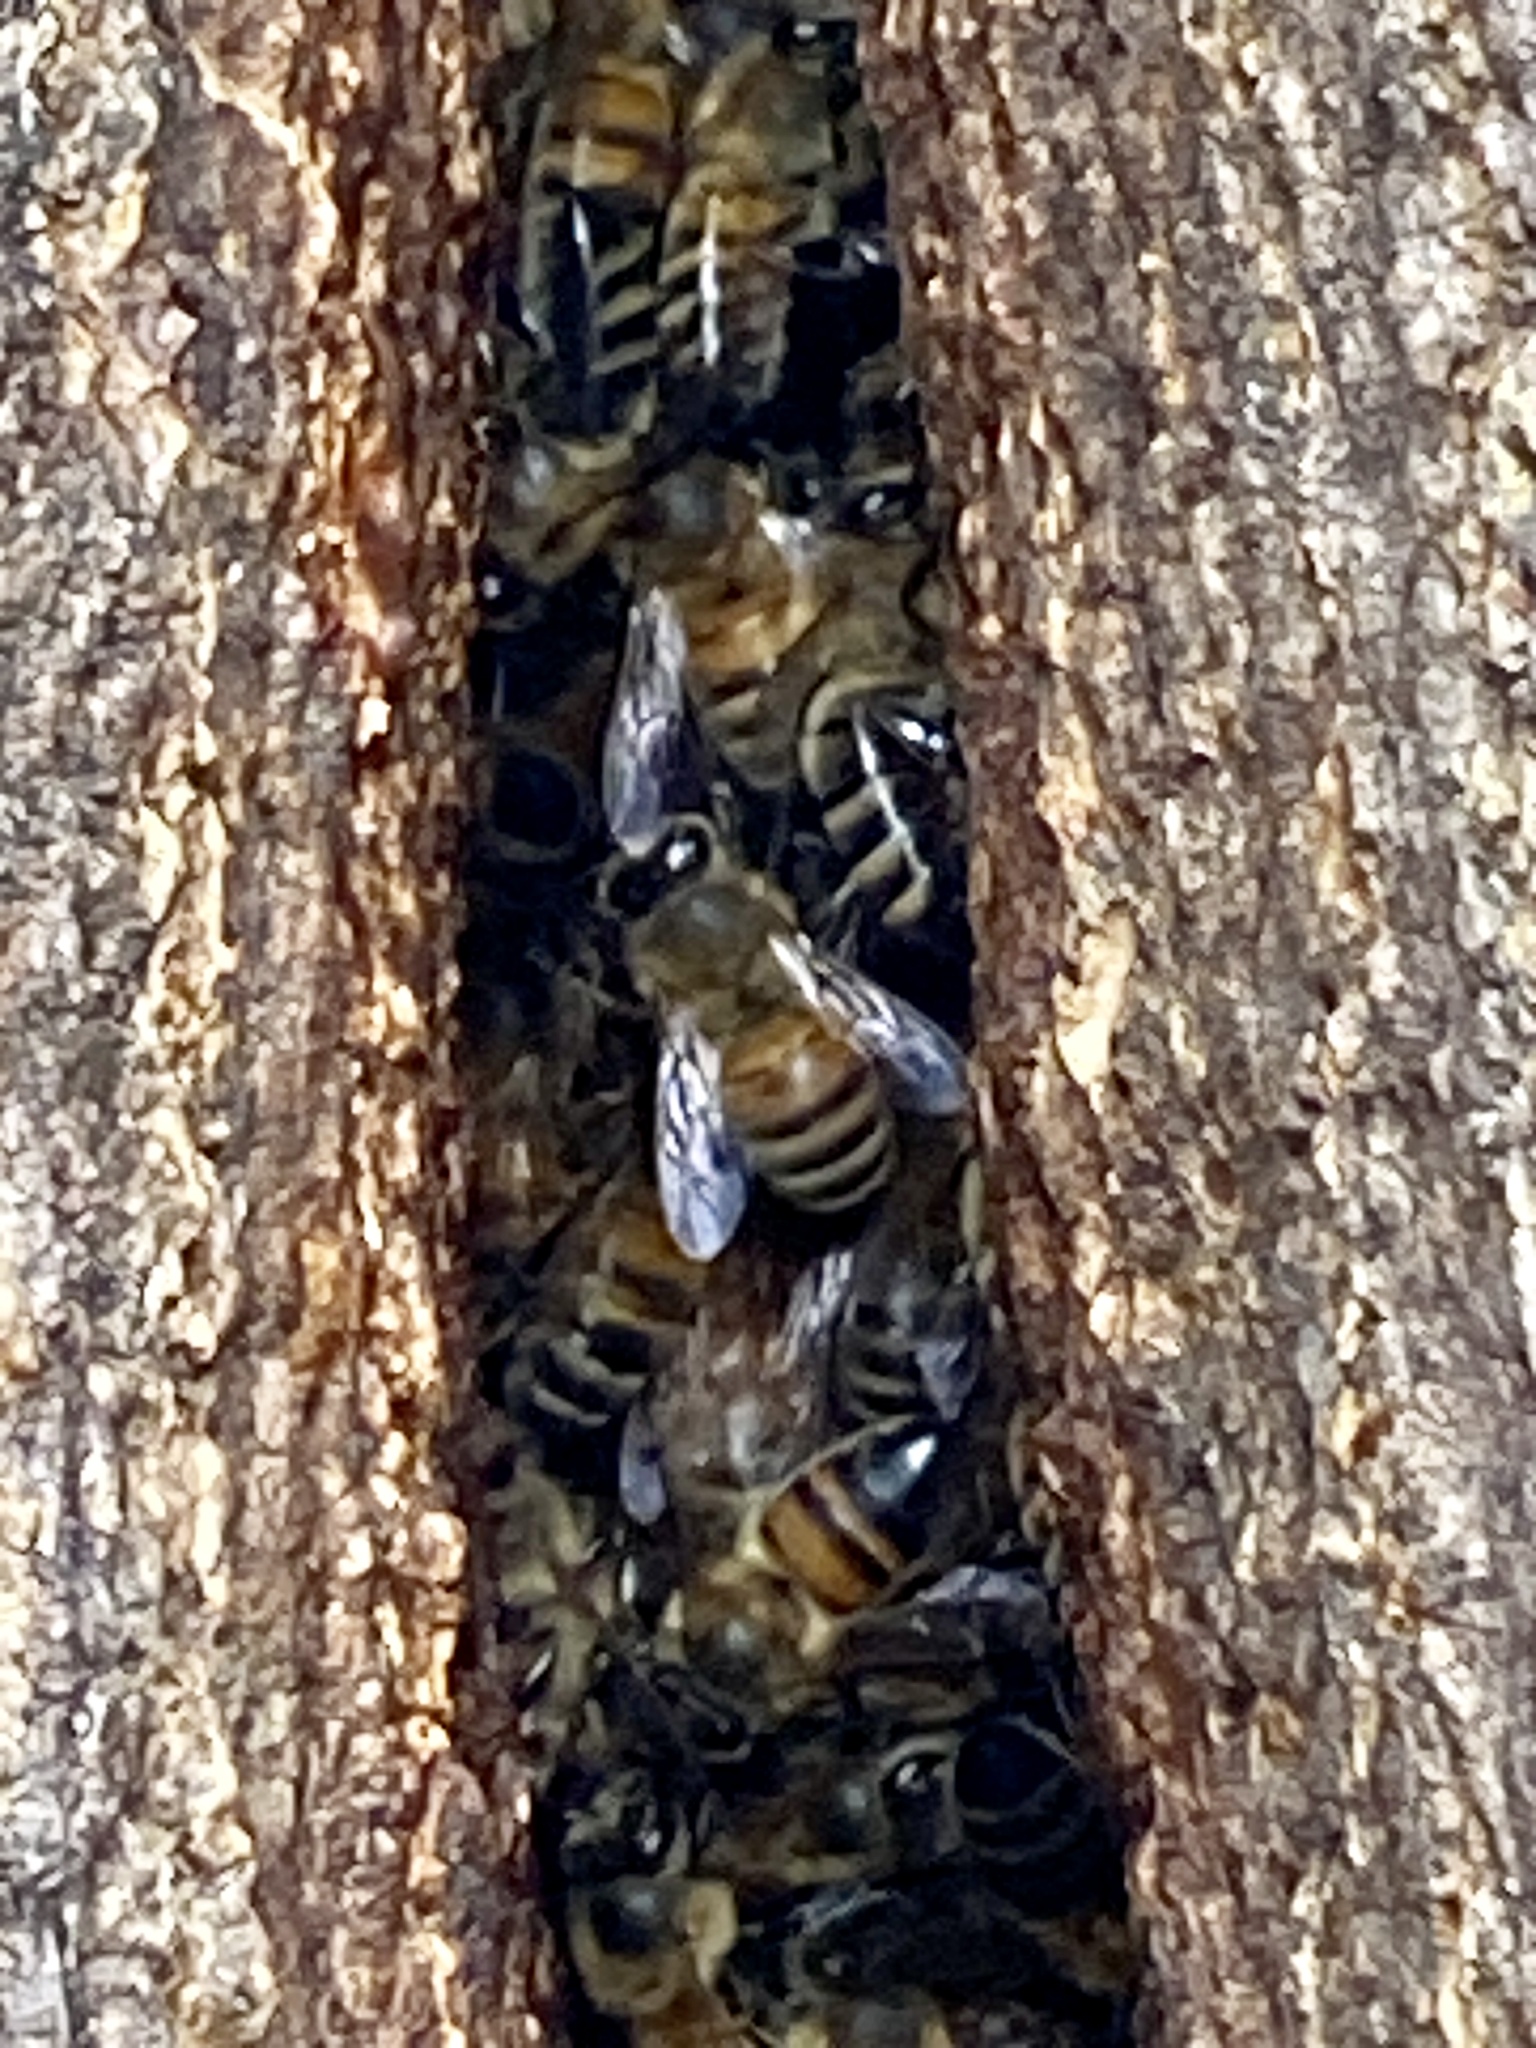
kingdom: Animalia
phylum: Arthropoda
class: Insecta
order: Hymenoptera
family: Apidae
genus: Apis
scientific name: Apis mellifera
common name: Honey bee
